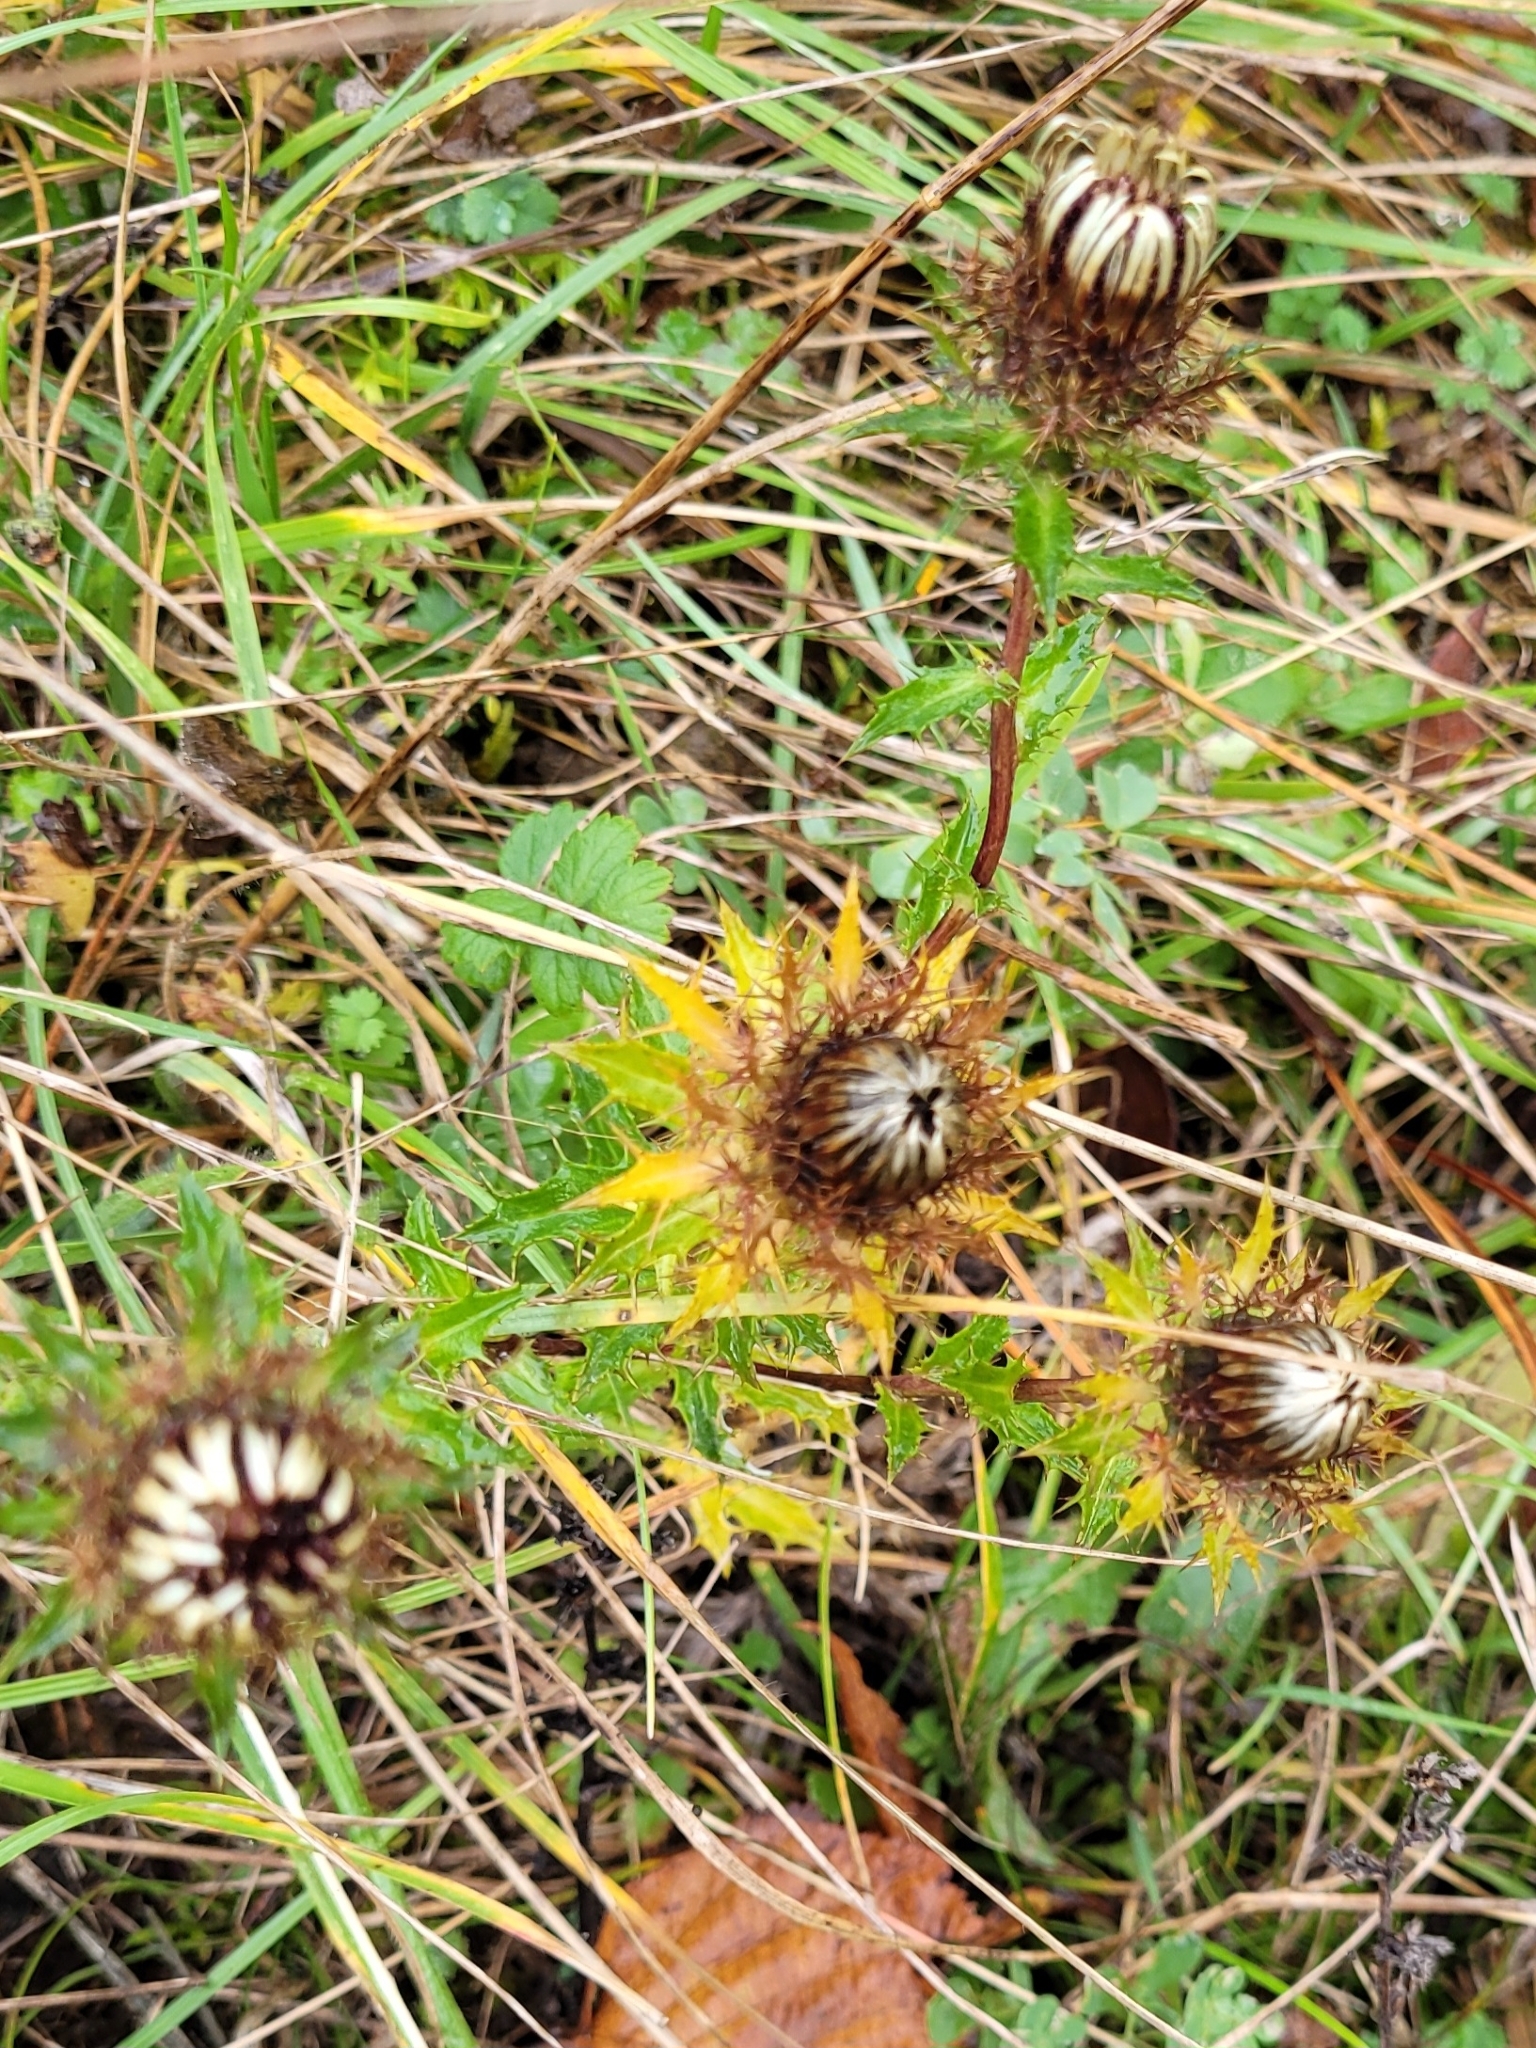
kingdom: Plantae
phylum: Tracheophyta
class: Magnoliopsida
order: Asterales
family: Asteraceae
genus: Carlina
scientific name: Carlina vulgaris
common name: Carline thistle
